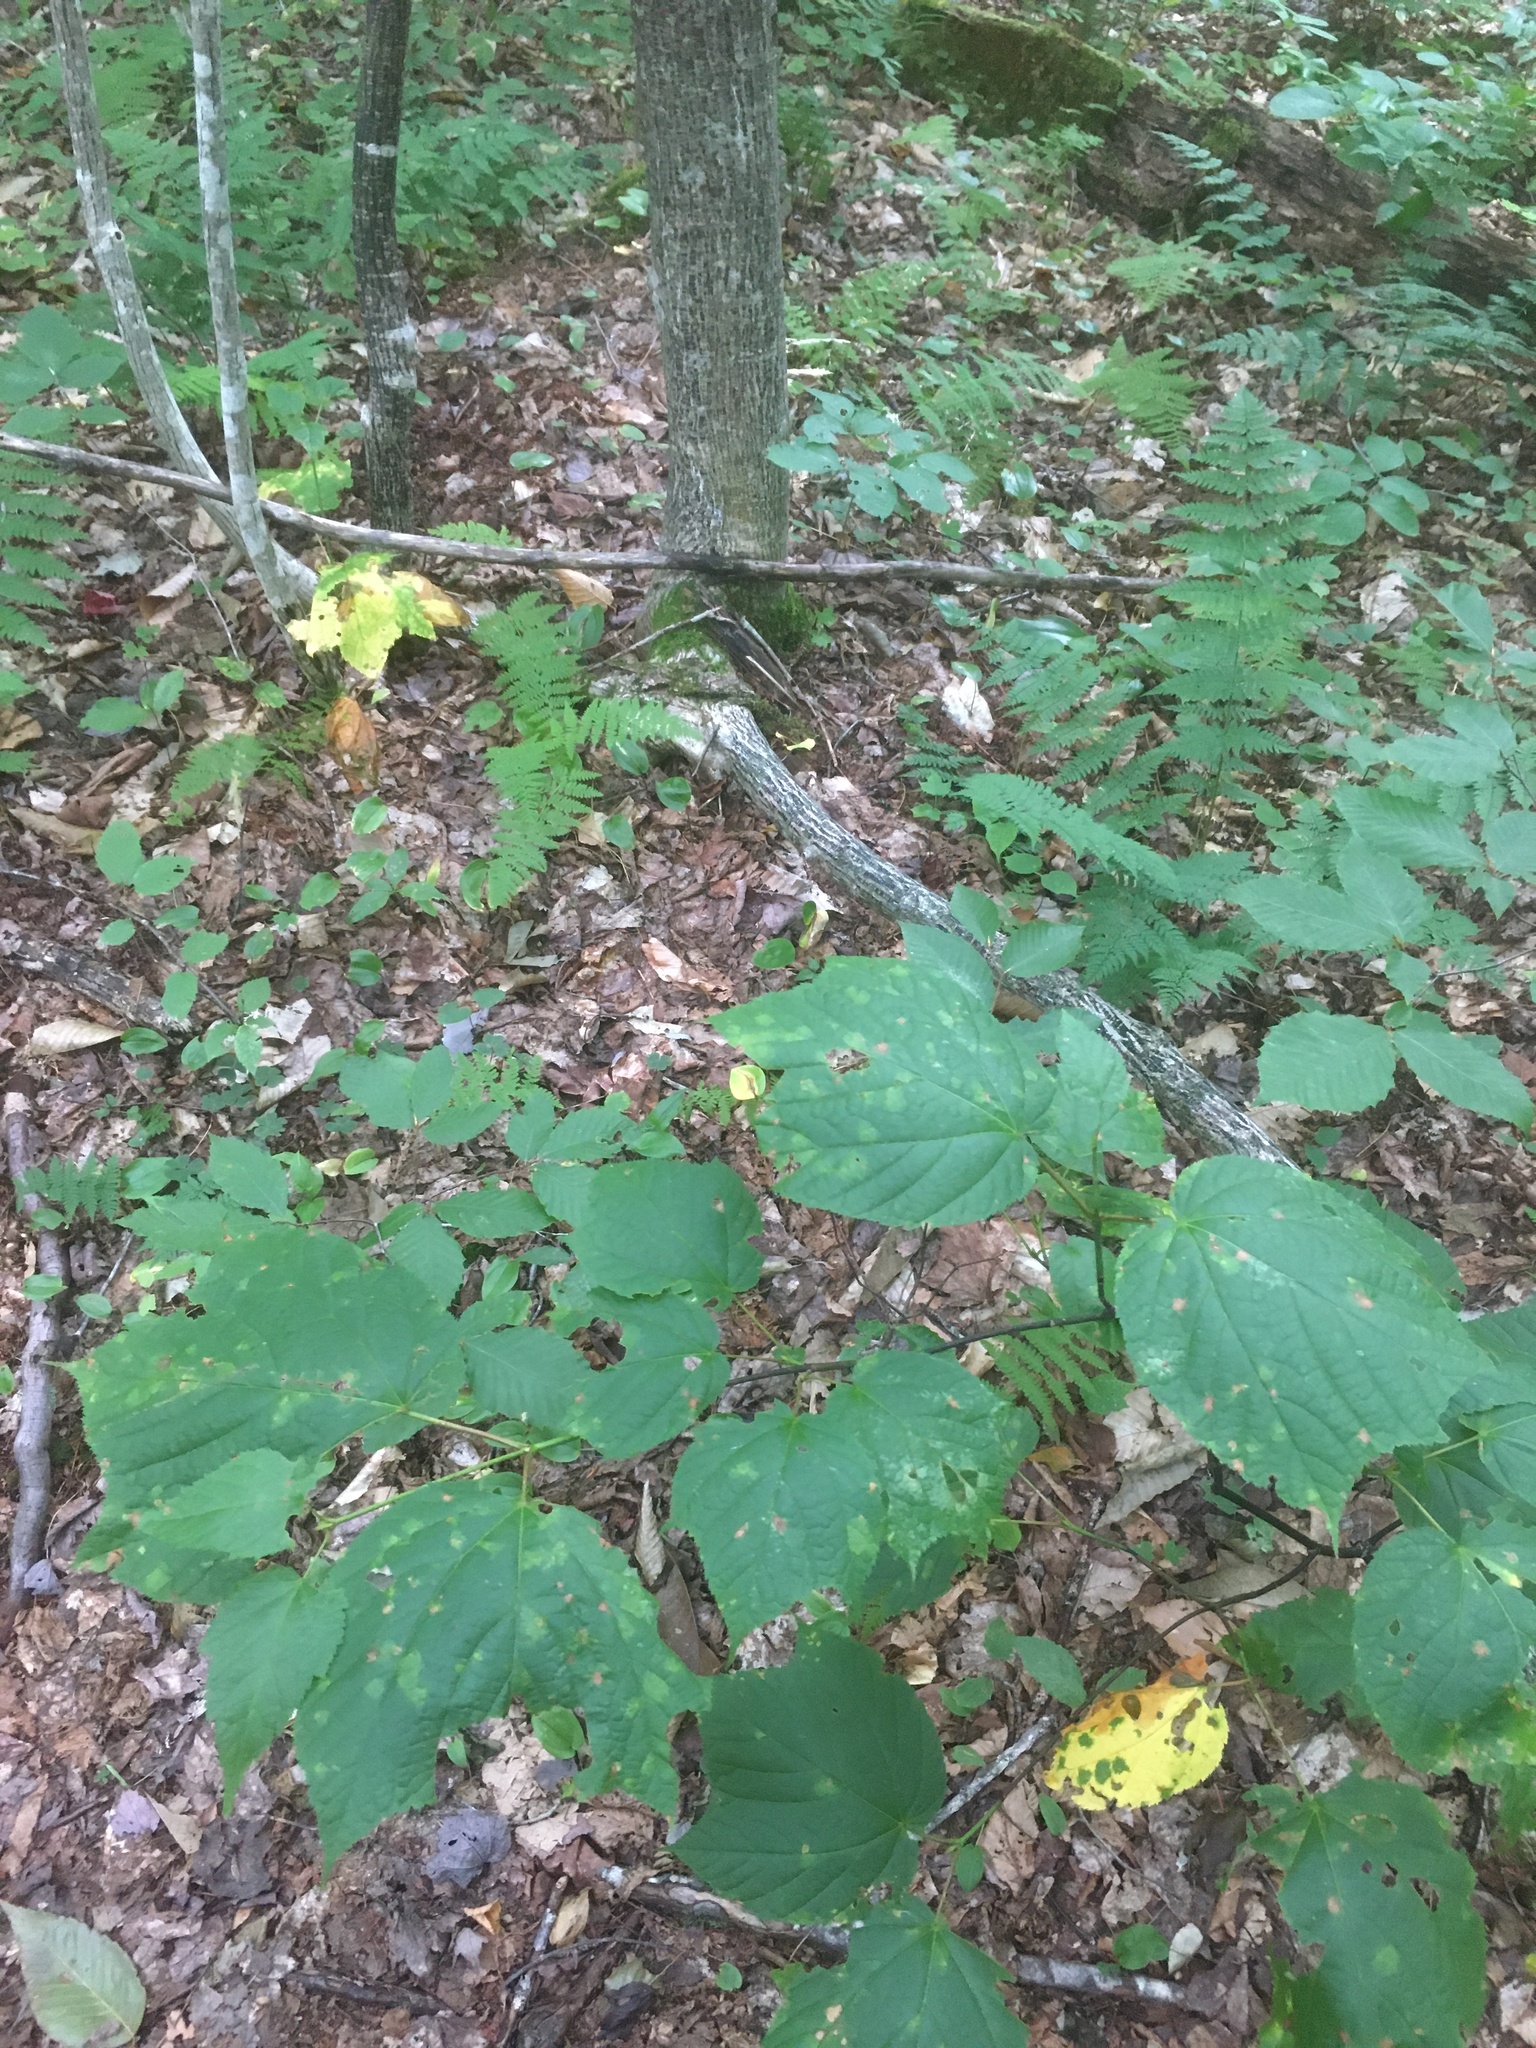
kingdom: Plantae
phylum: Tracheophyta
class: Magnoliopsida
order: Sapindales
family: Sapindaceae
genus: Acer
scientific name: Acer pensylvanicum
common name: Moosewood
